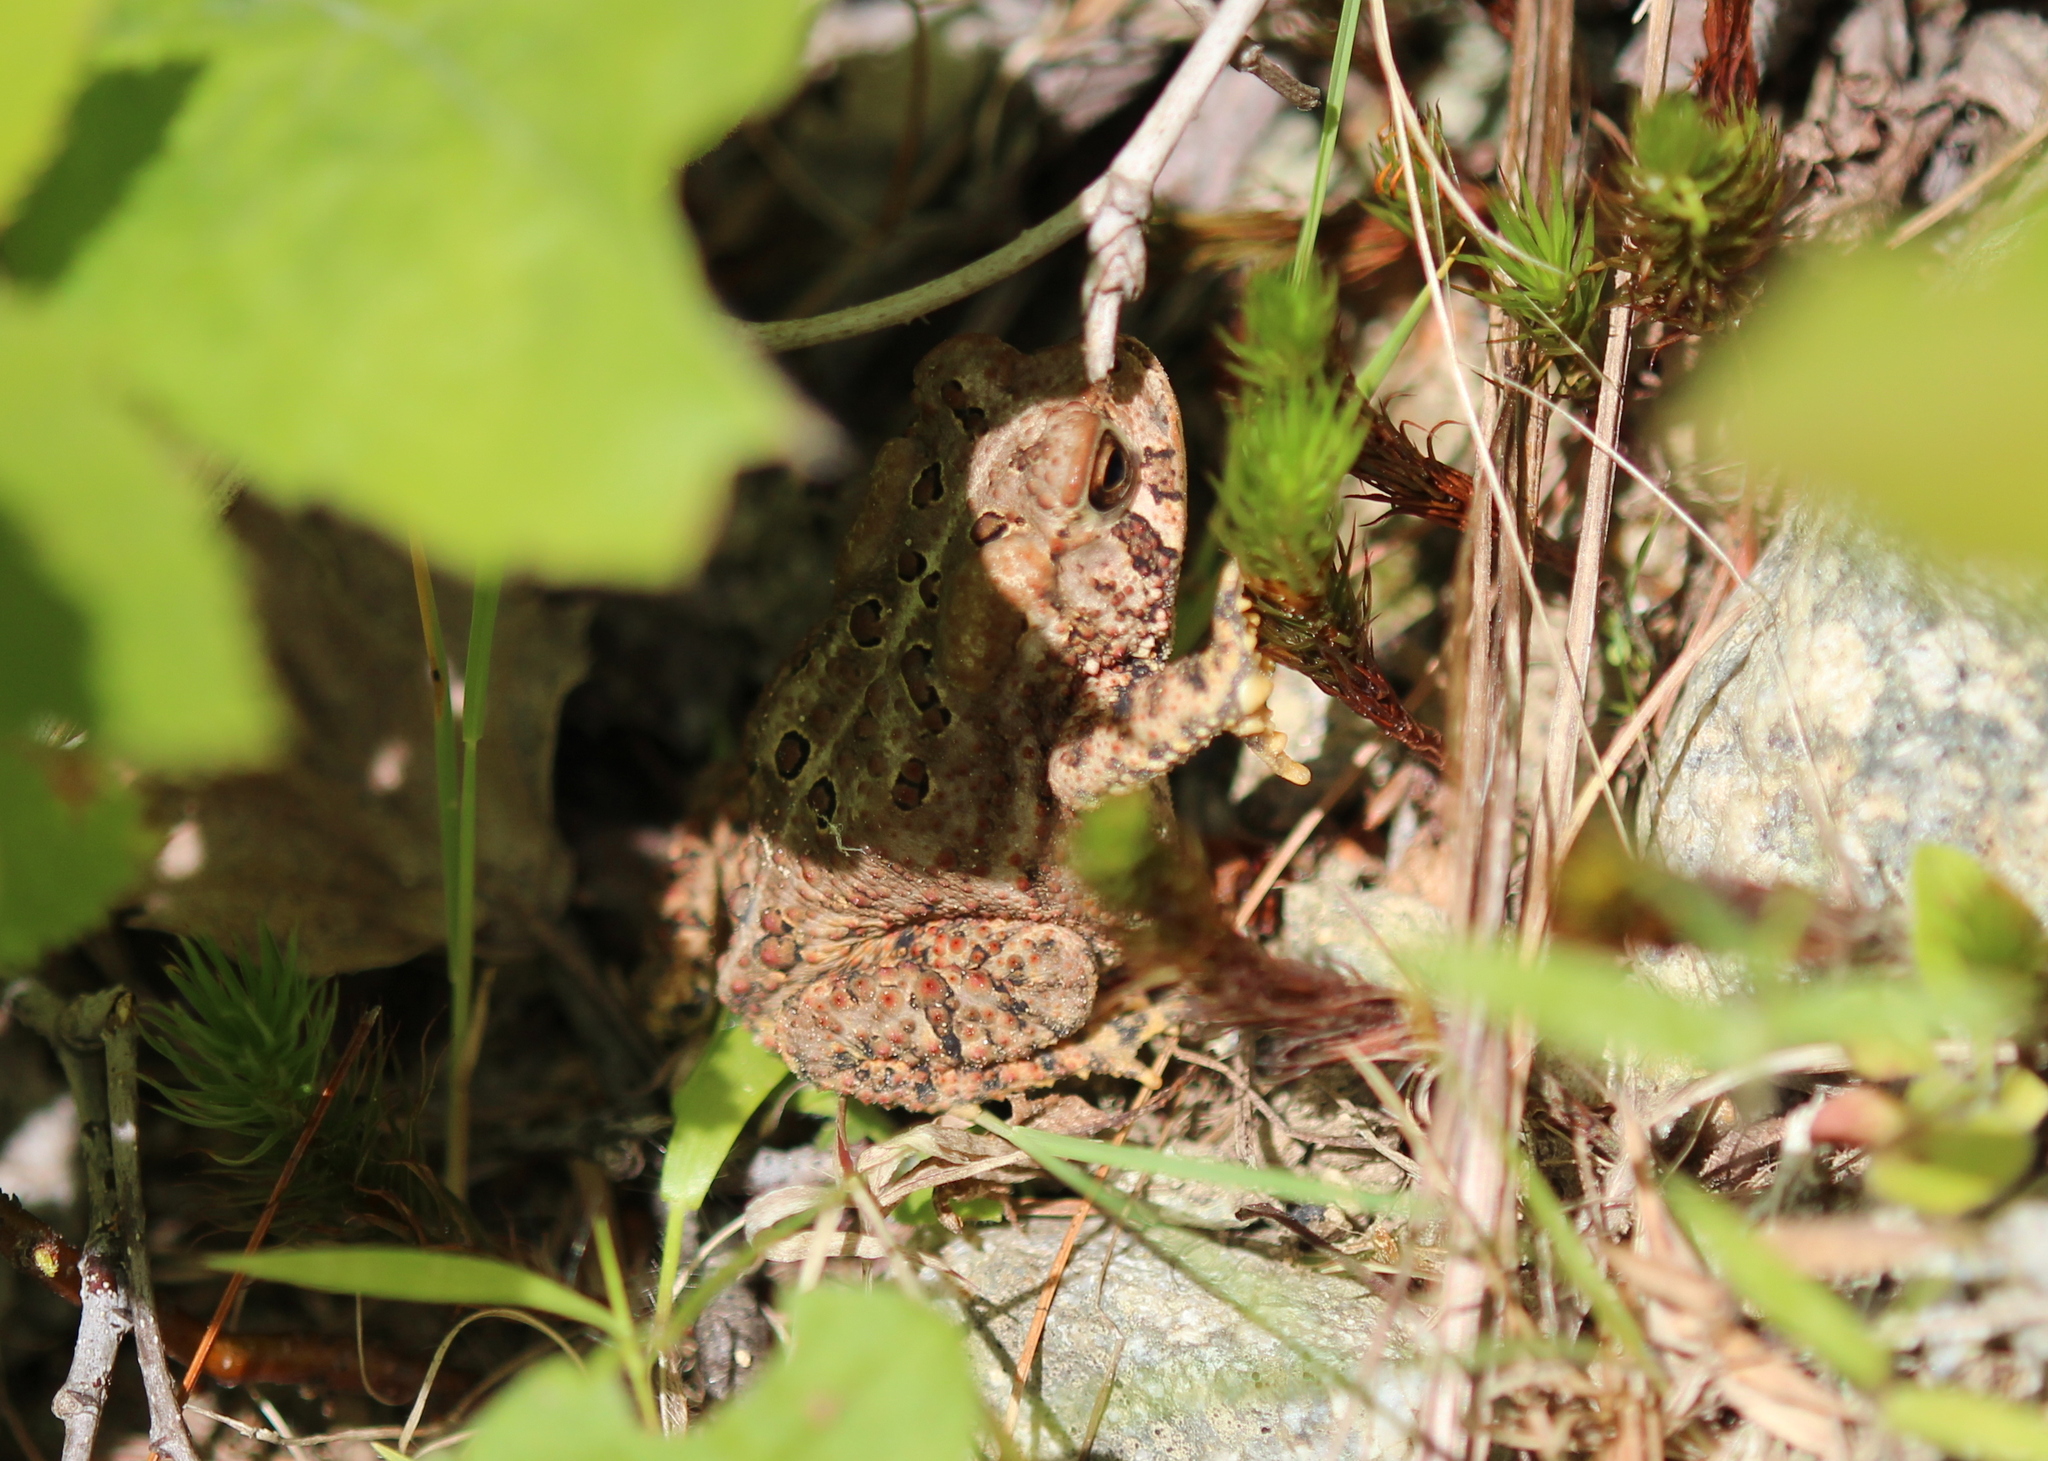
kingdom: Animalia
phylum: Chordata
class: Amphibia
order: Anura
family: Bufonidae
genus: Anaxyrus
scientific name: Anaxyrus americanus
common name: American toad
